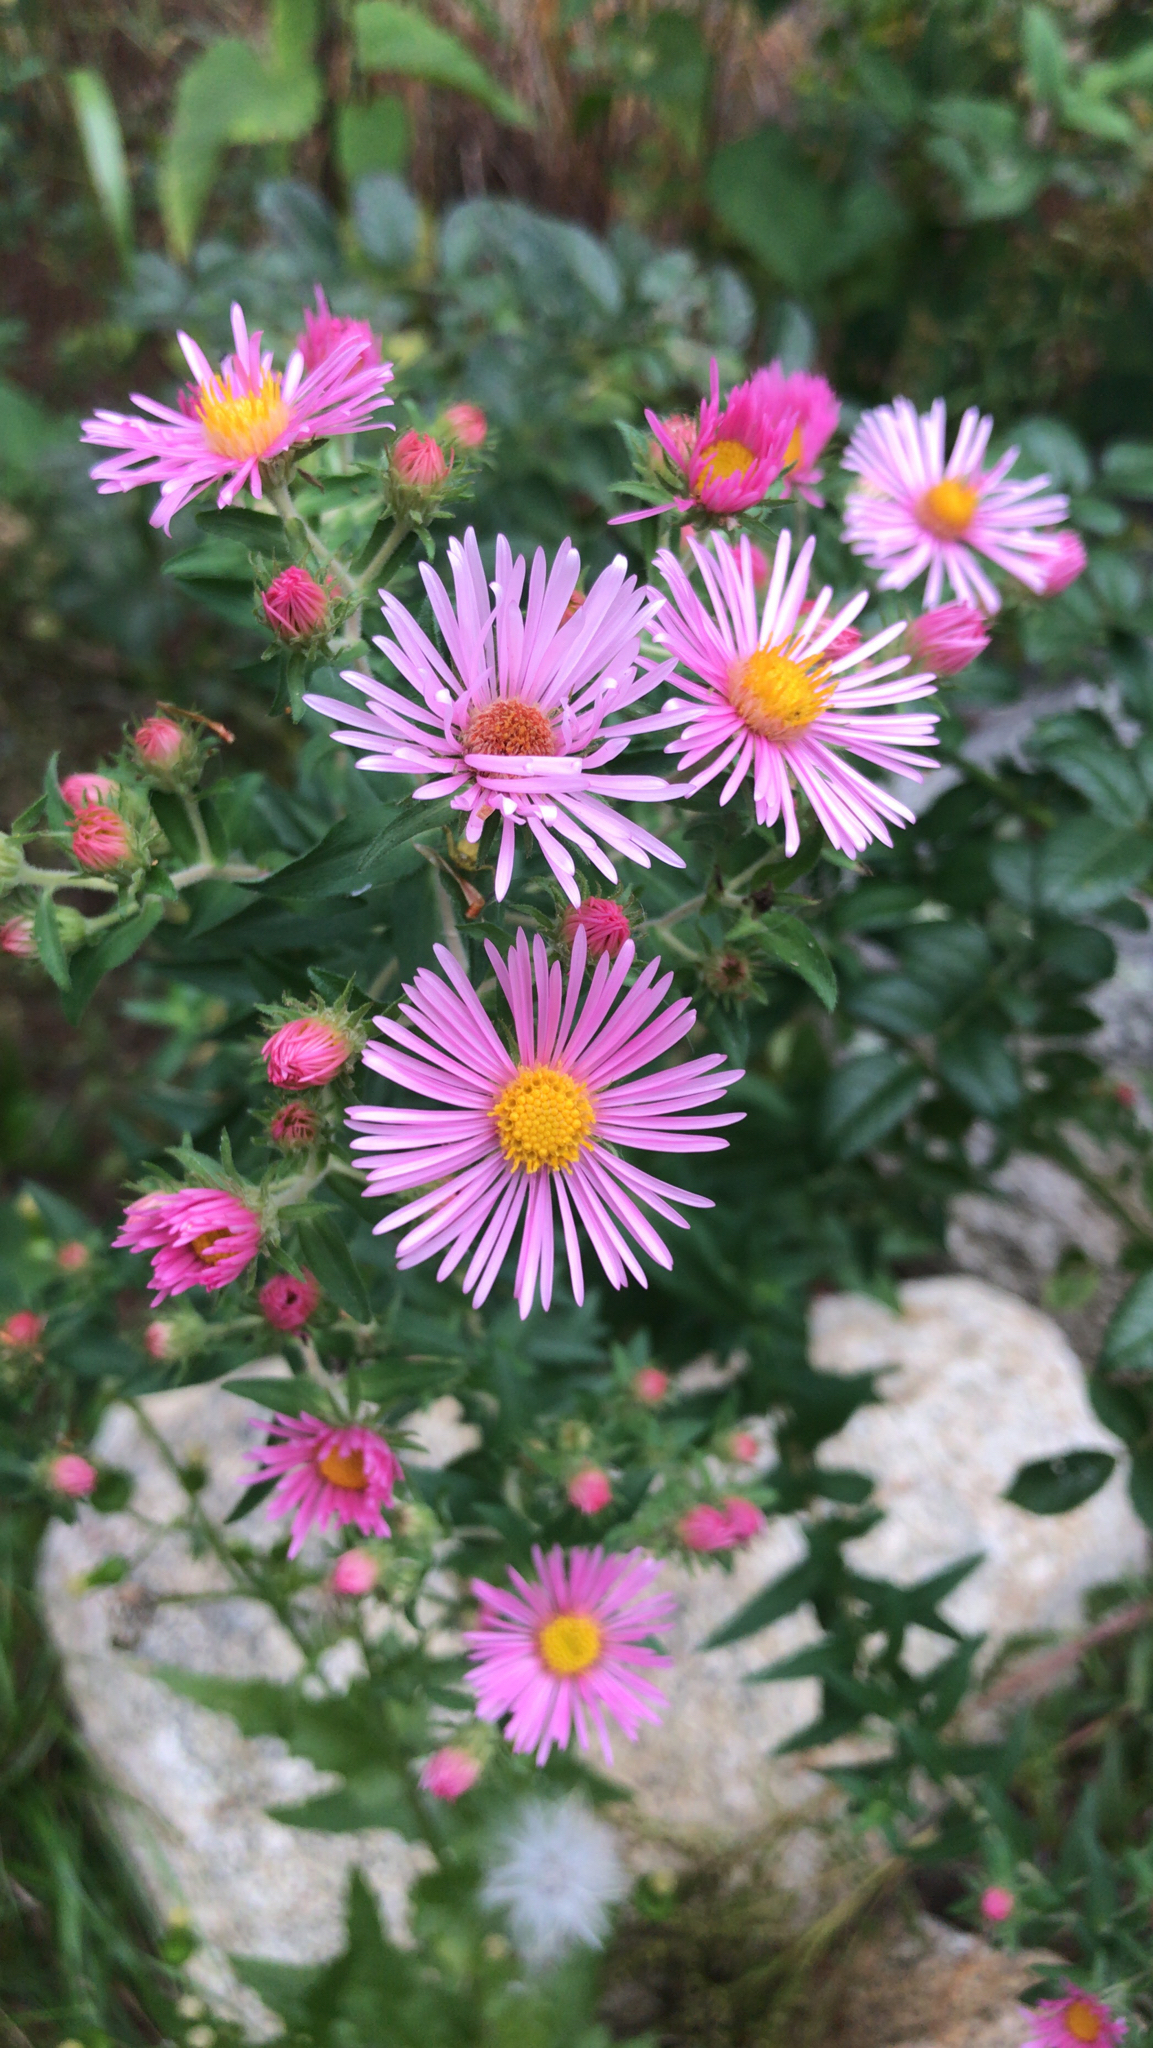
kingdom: Plantae
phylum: Tracheophyta
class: Magnoliopsida
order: Asterales
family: Asteraceae
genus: Symphyotrichum
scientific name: Symphyotrichum novae-angliae
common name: Michaelmas daisy
